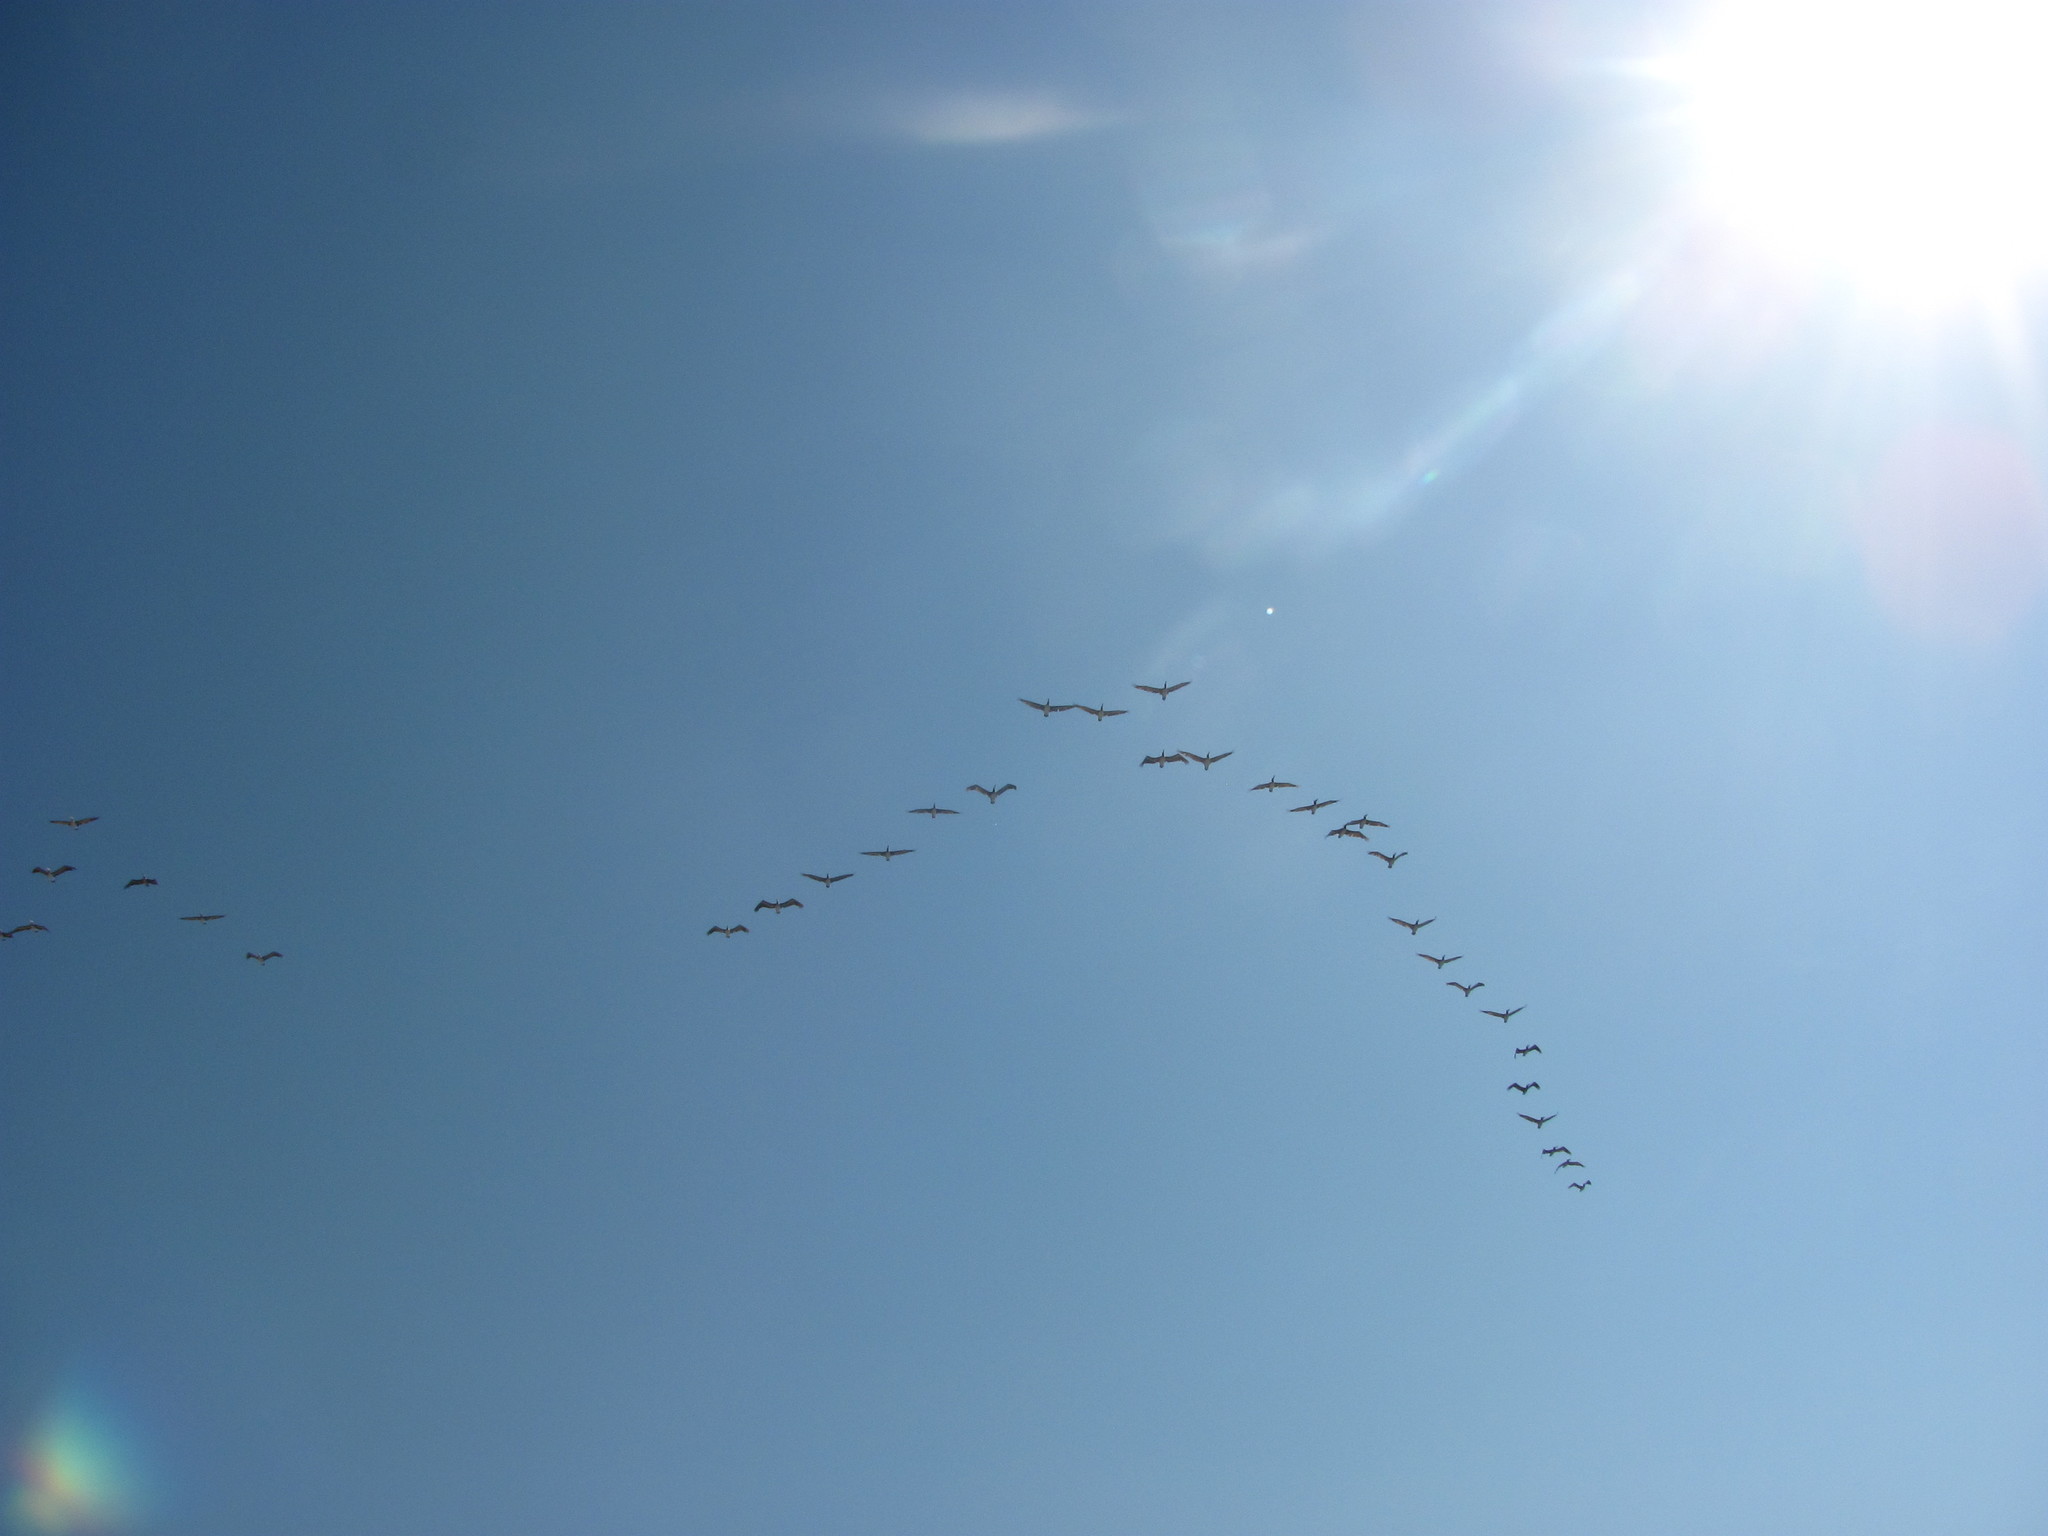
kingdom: Animalia
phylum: Chordata
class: Aves
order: Pelecaniformes
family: Pelecanidae
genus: Pelecanus
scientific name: Pelecanus occidentalis
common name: Brown pelican
